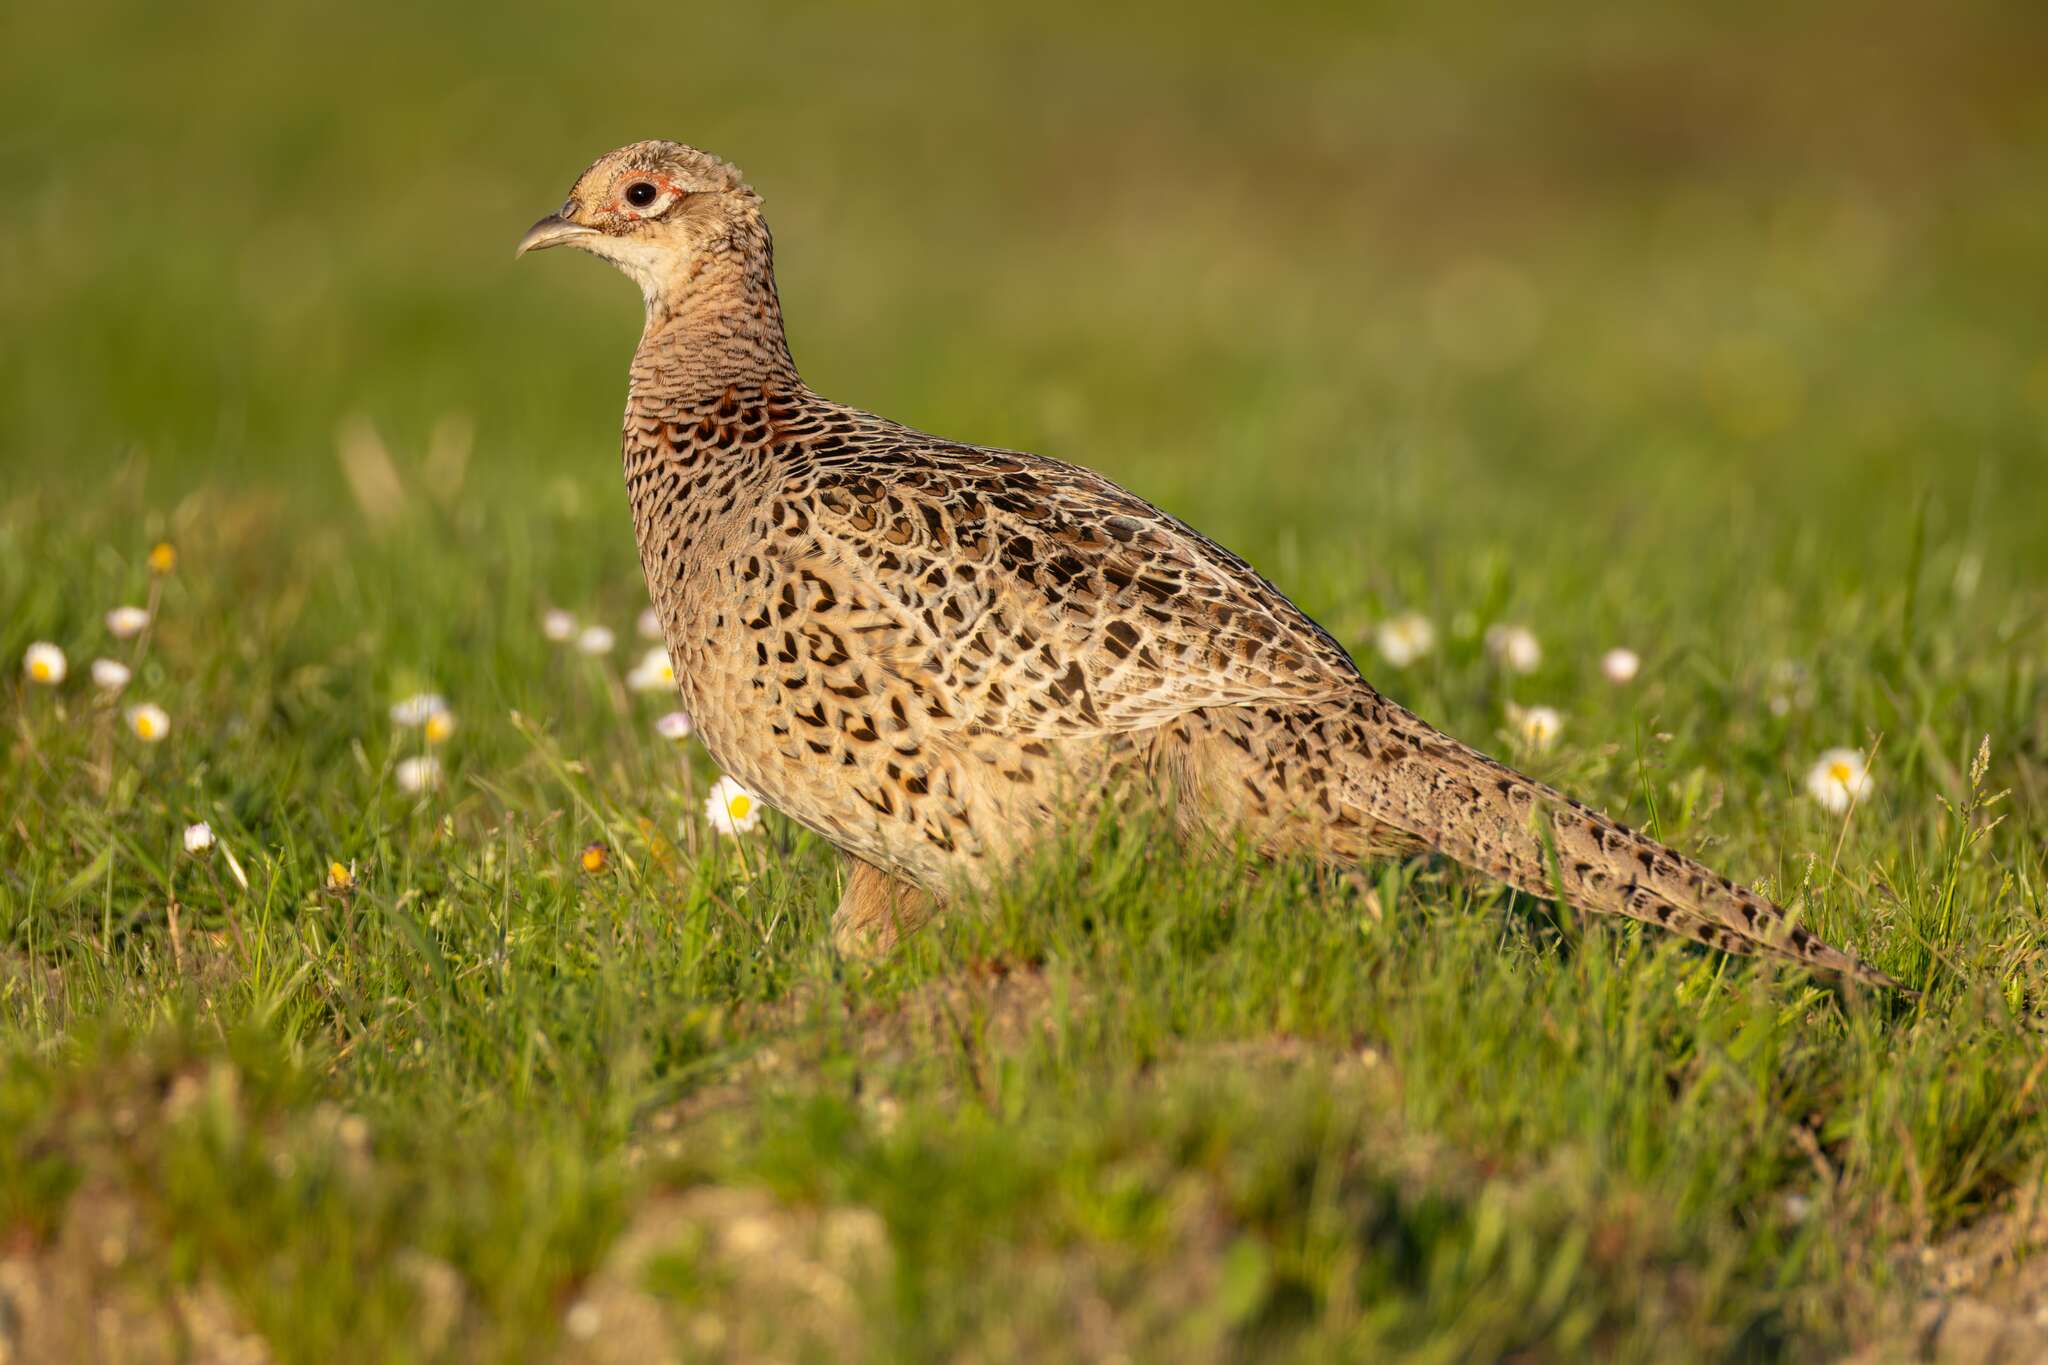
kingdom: Animalia
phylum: Chordata
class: Aves
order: Galliformes
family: Phasianidae
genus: Phasianus
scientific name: Phasianus colchicus
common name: Common pheasant
